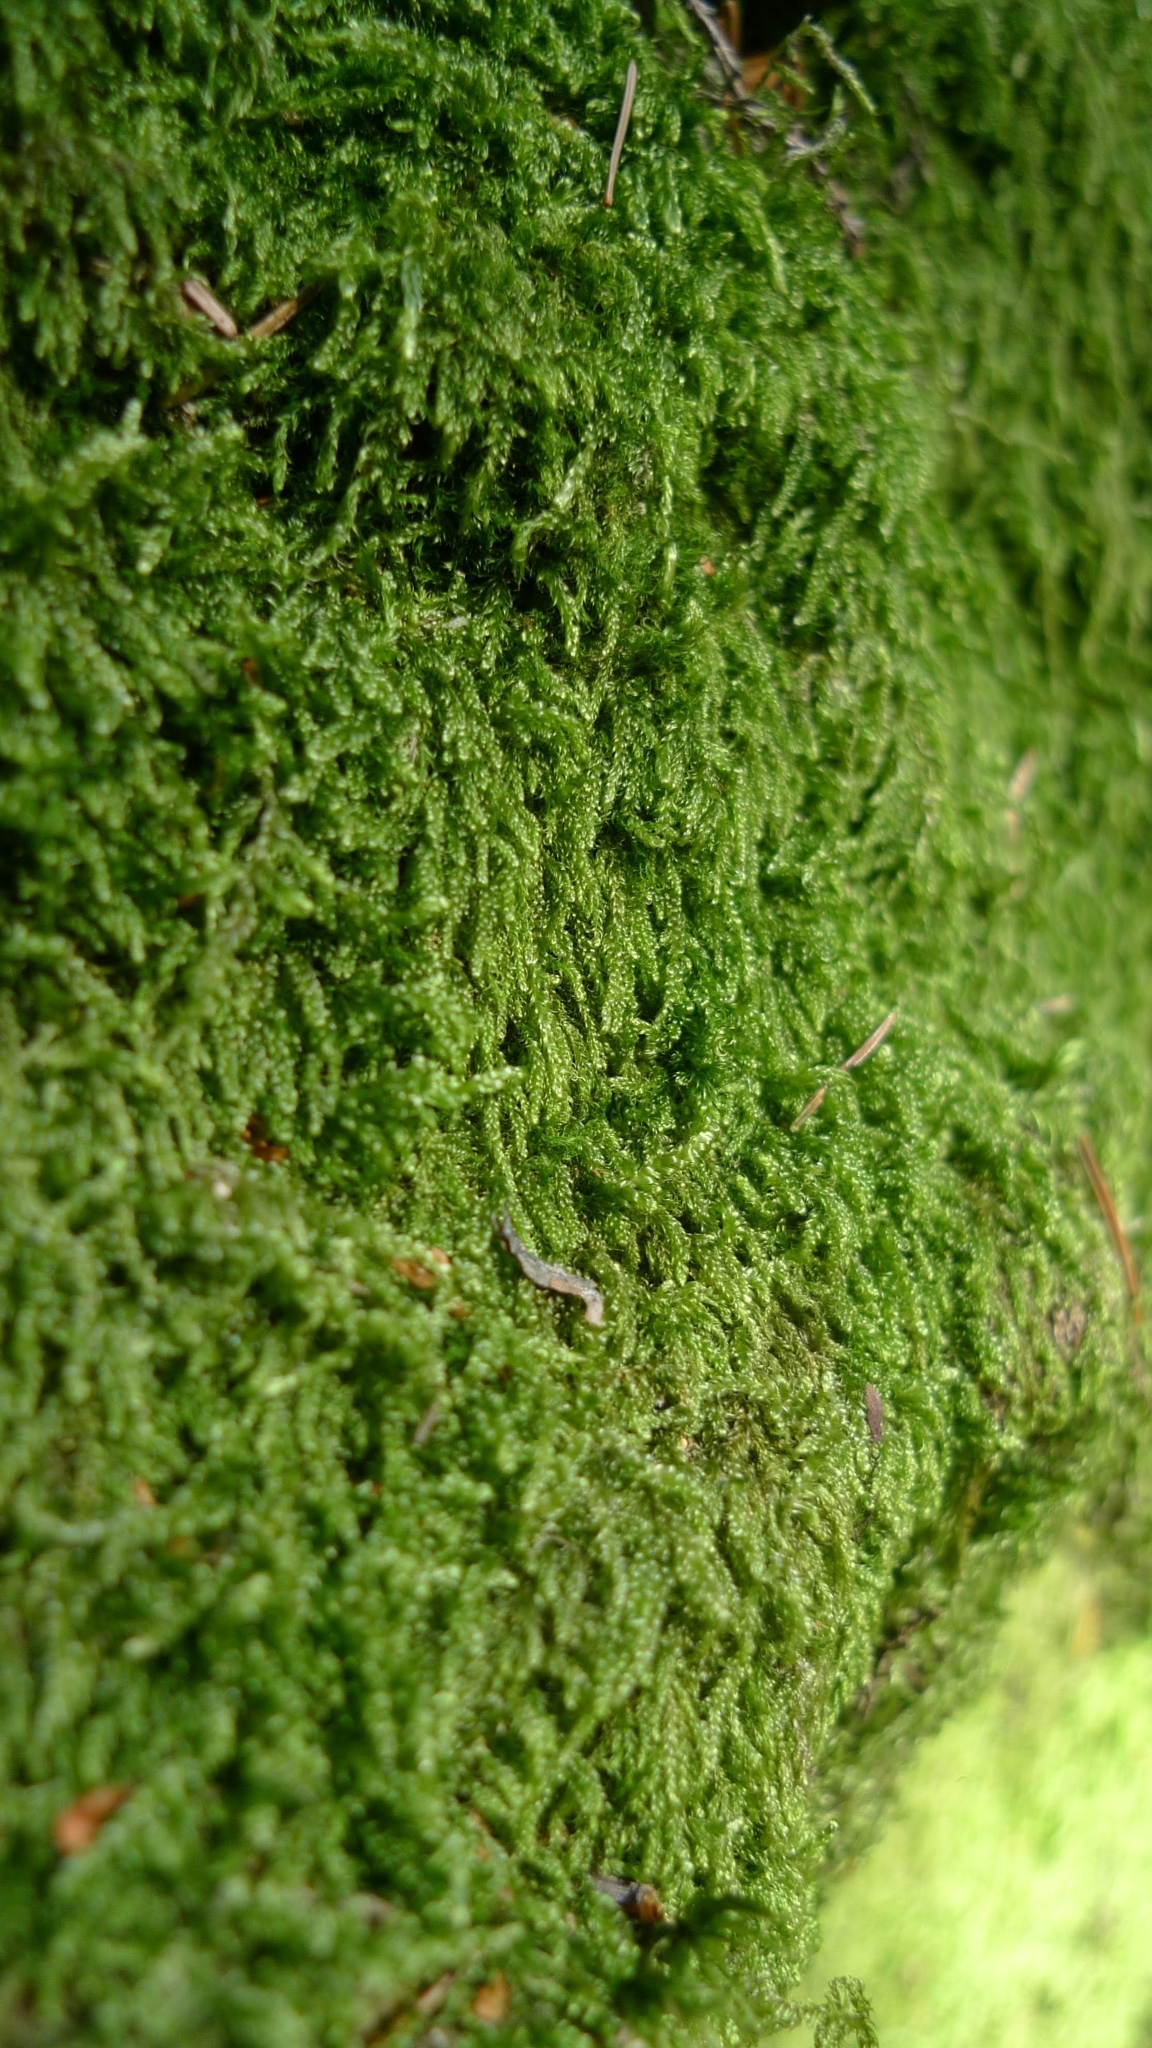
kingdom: Plantae
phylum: Bryophyta
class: Bryopsida
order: Hypnales
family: Hypnaceae
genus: Hypnum
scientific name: Hypnum cupressiforme
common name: Cypress-leaved plait-moss
